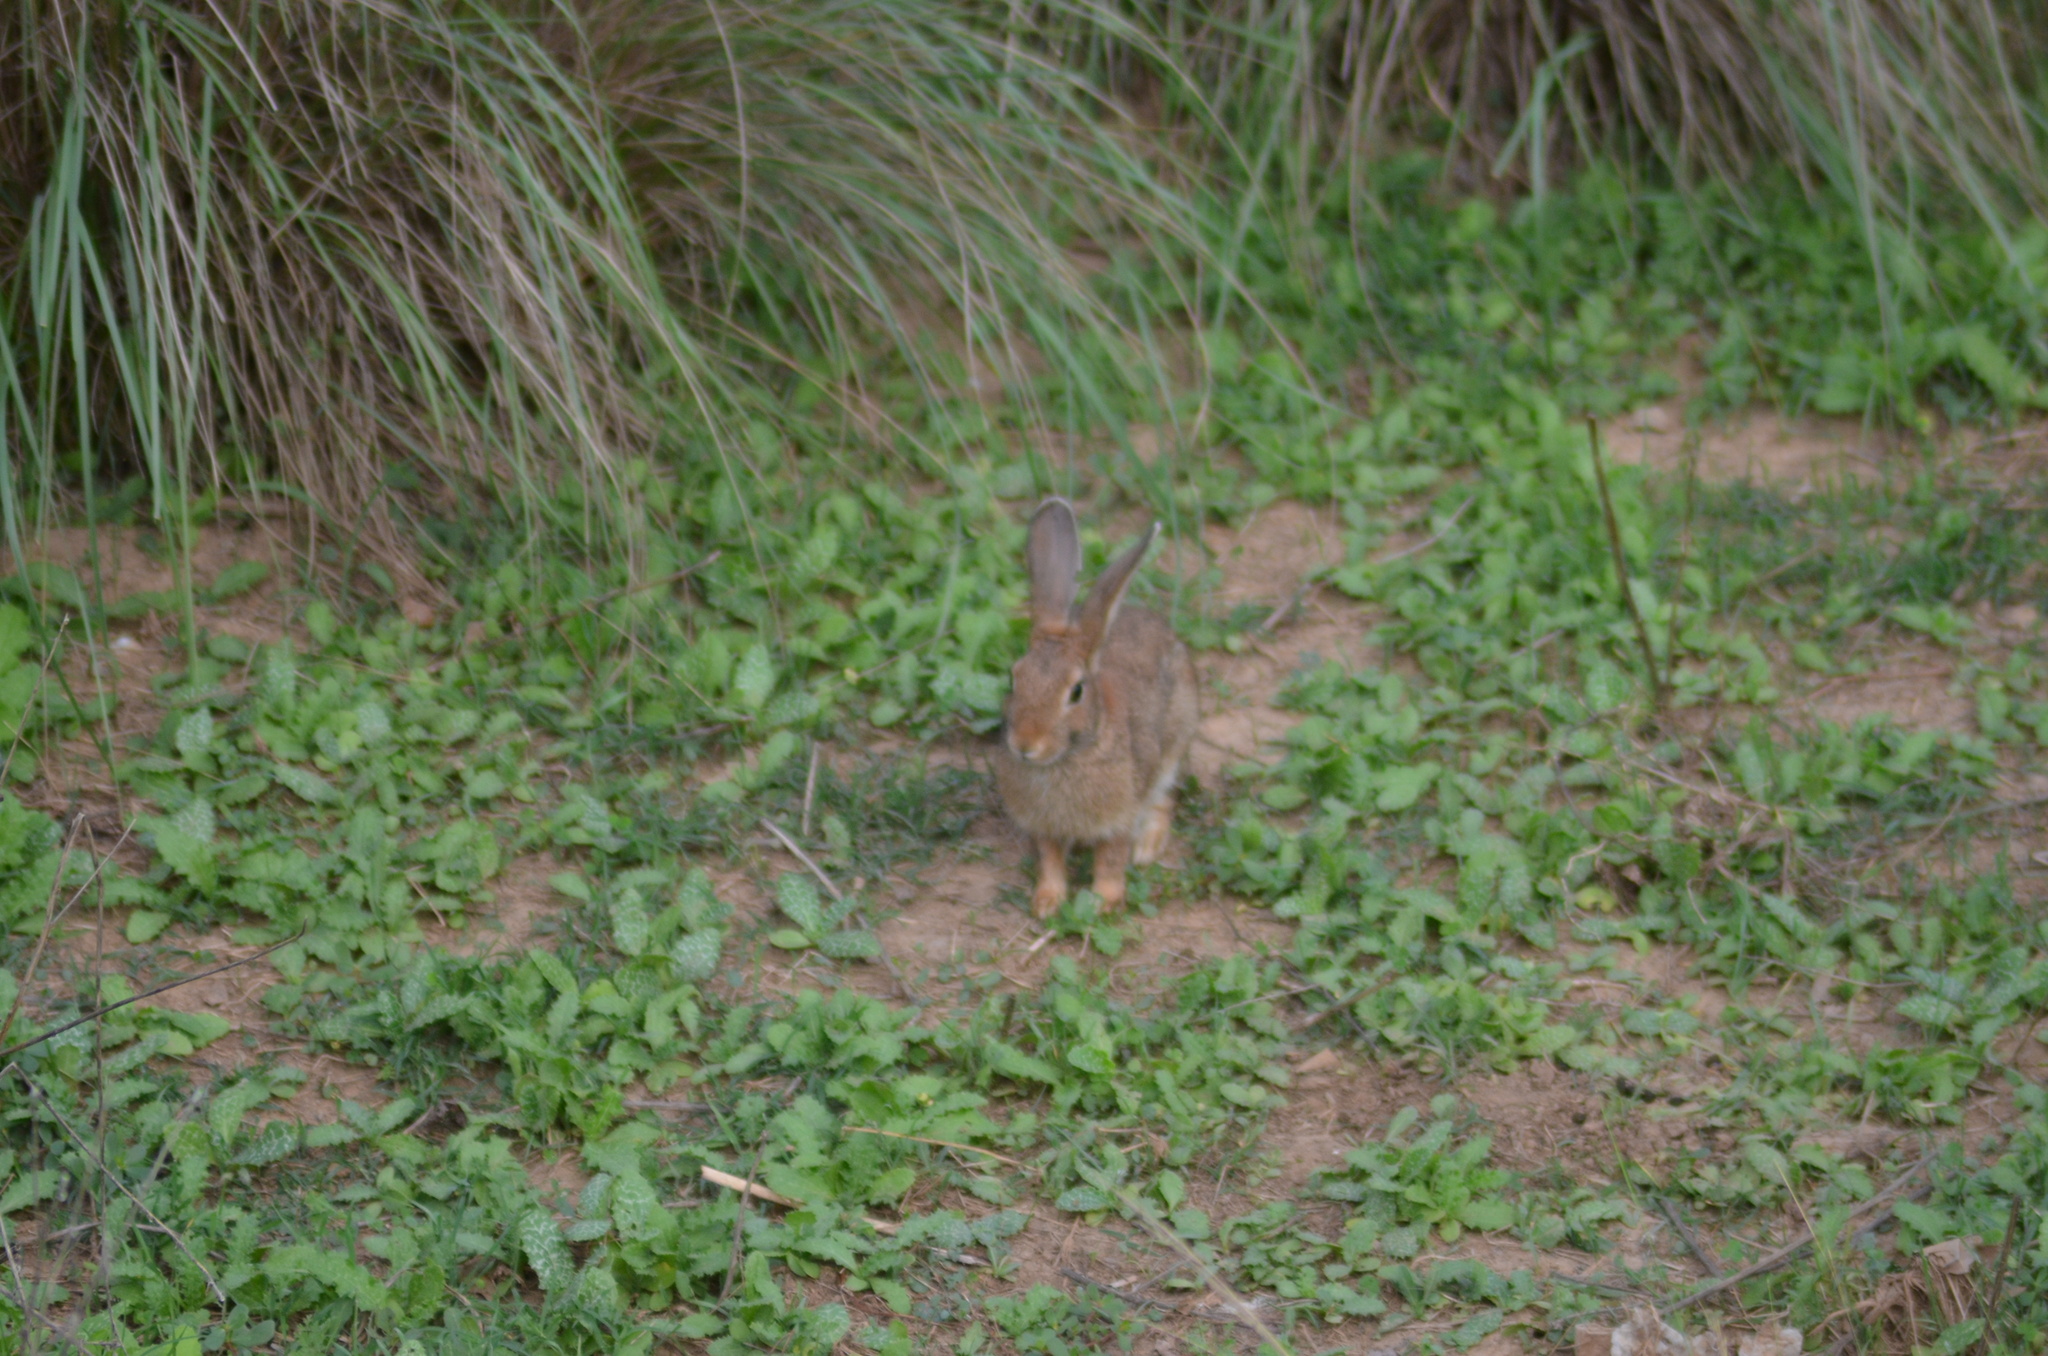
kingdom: Animalia
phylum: Chordata
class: Mammalia
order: Lagomorpha
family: Leporidae
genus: Oryctolagus
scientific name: Oryctolagus cuniculus
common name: European rabbit
